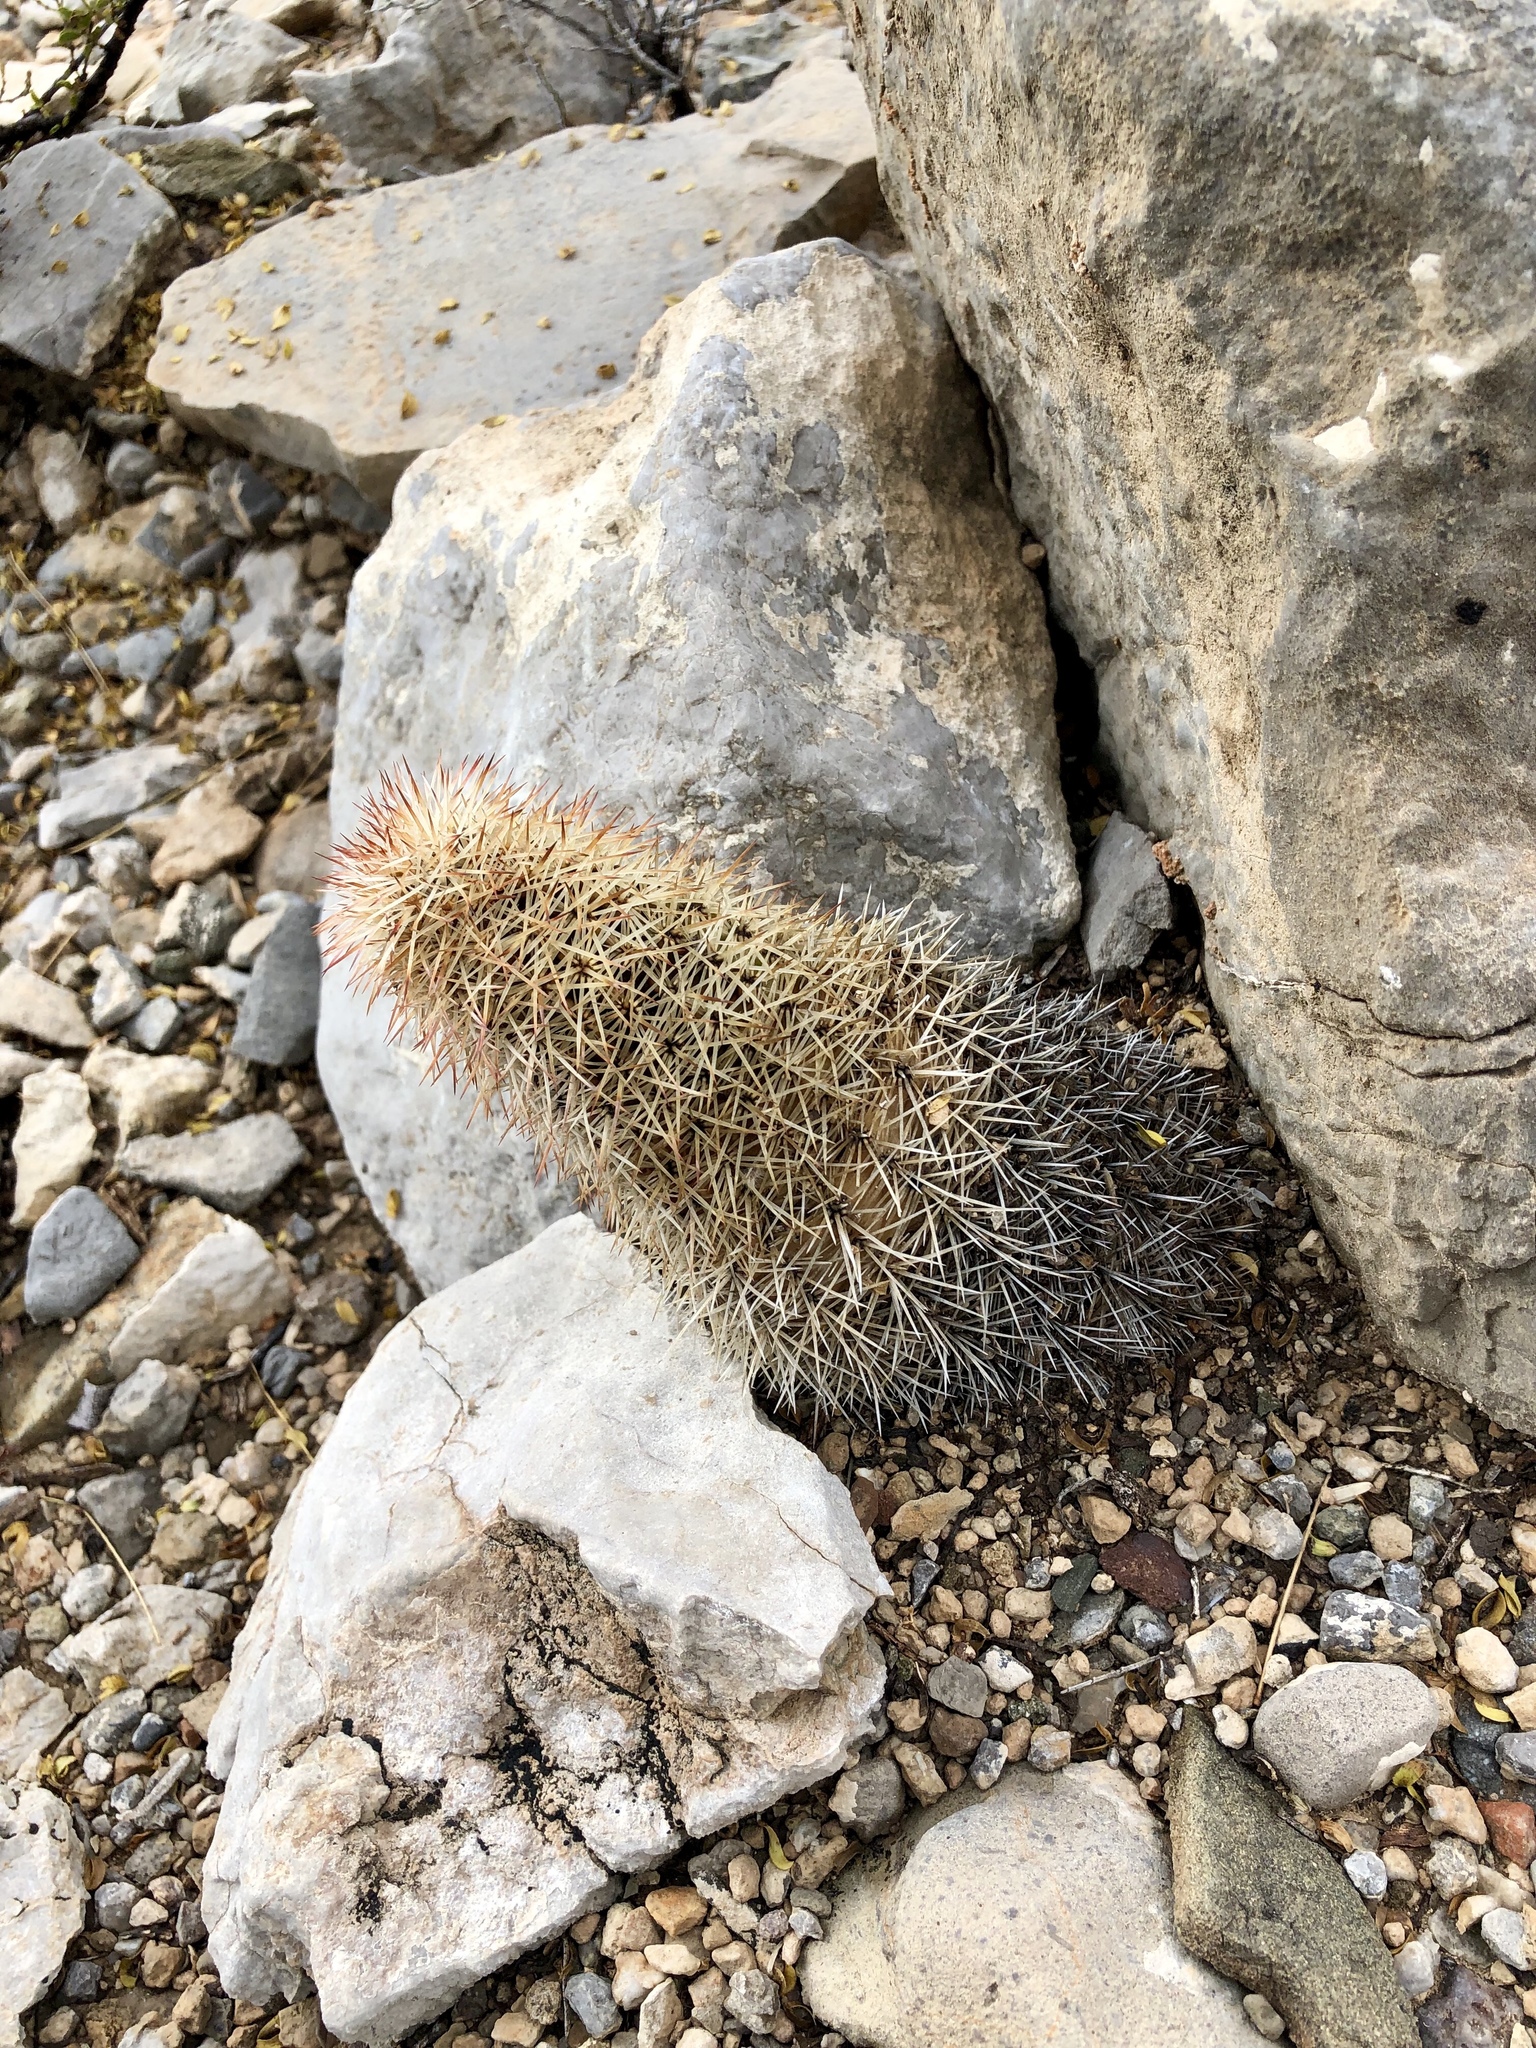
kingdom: Plantae
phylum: Tracheophyta
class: Magnoliopsida
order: Caryophyllales
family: Cactaceae
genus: Echinocereus
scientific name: Echinocereus dasyacanthus
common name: Spiny hedgehog cactus
